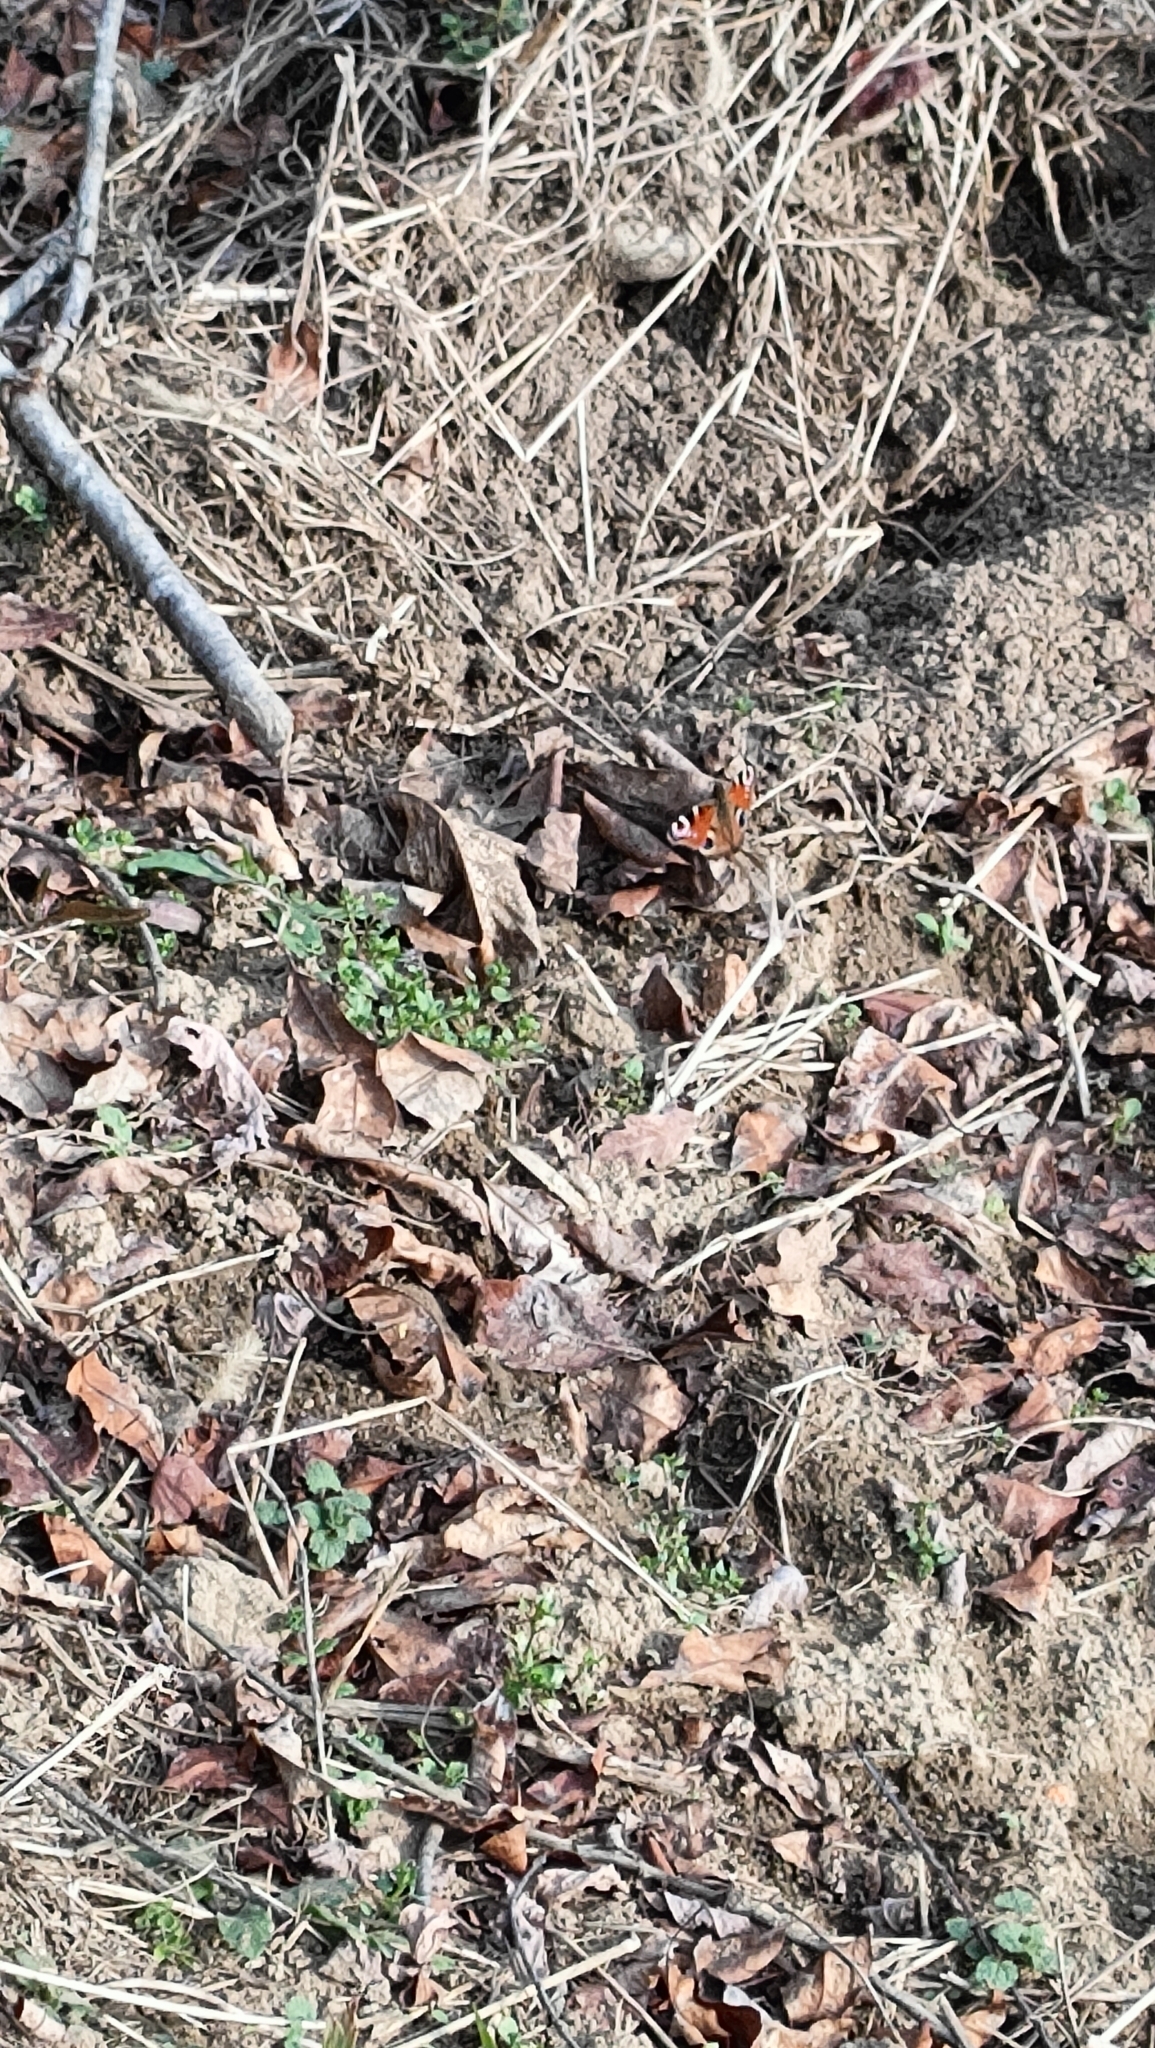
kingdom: Animalia
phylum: Arthropoda
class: Insecta
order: Lepidoptera
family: Nymphalidae
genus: Aglais
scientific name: Aglais io
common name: Peacock
